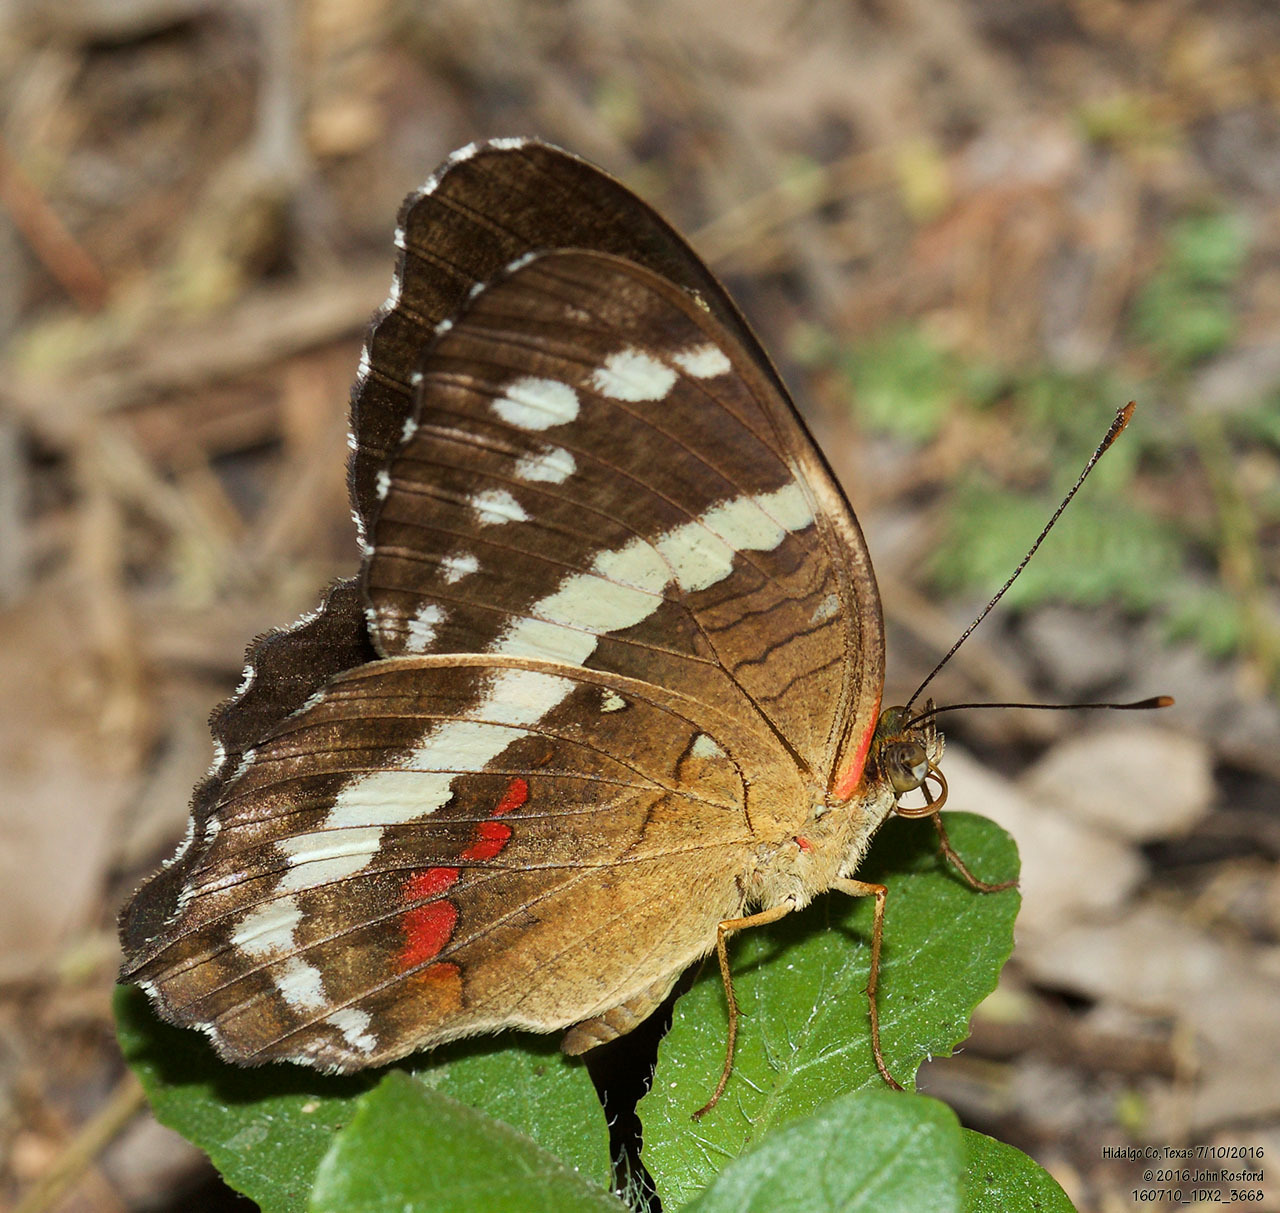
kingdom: Animalia
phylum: Arthropoda
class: Insecta
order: Lepidoptera
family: Nymphalidae
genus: Anartia
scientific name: Anartia fatima
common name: Banded peacock
